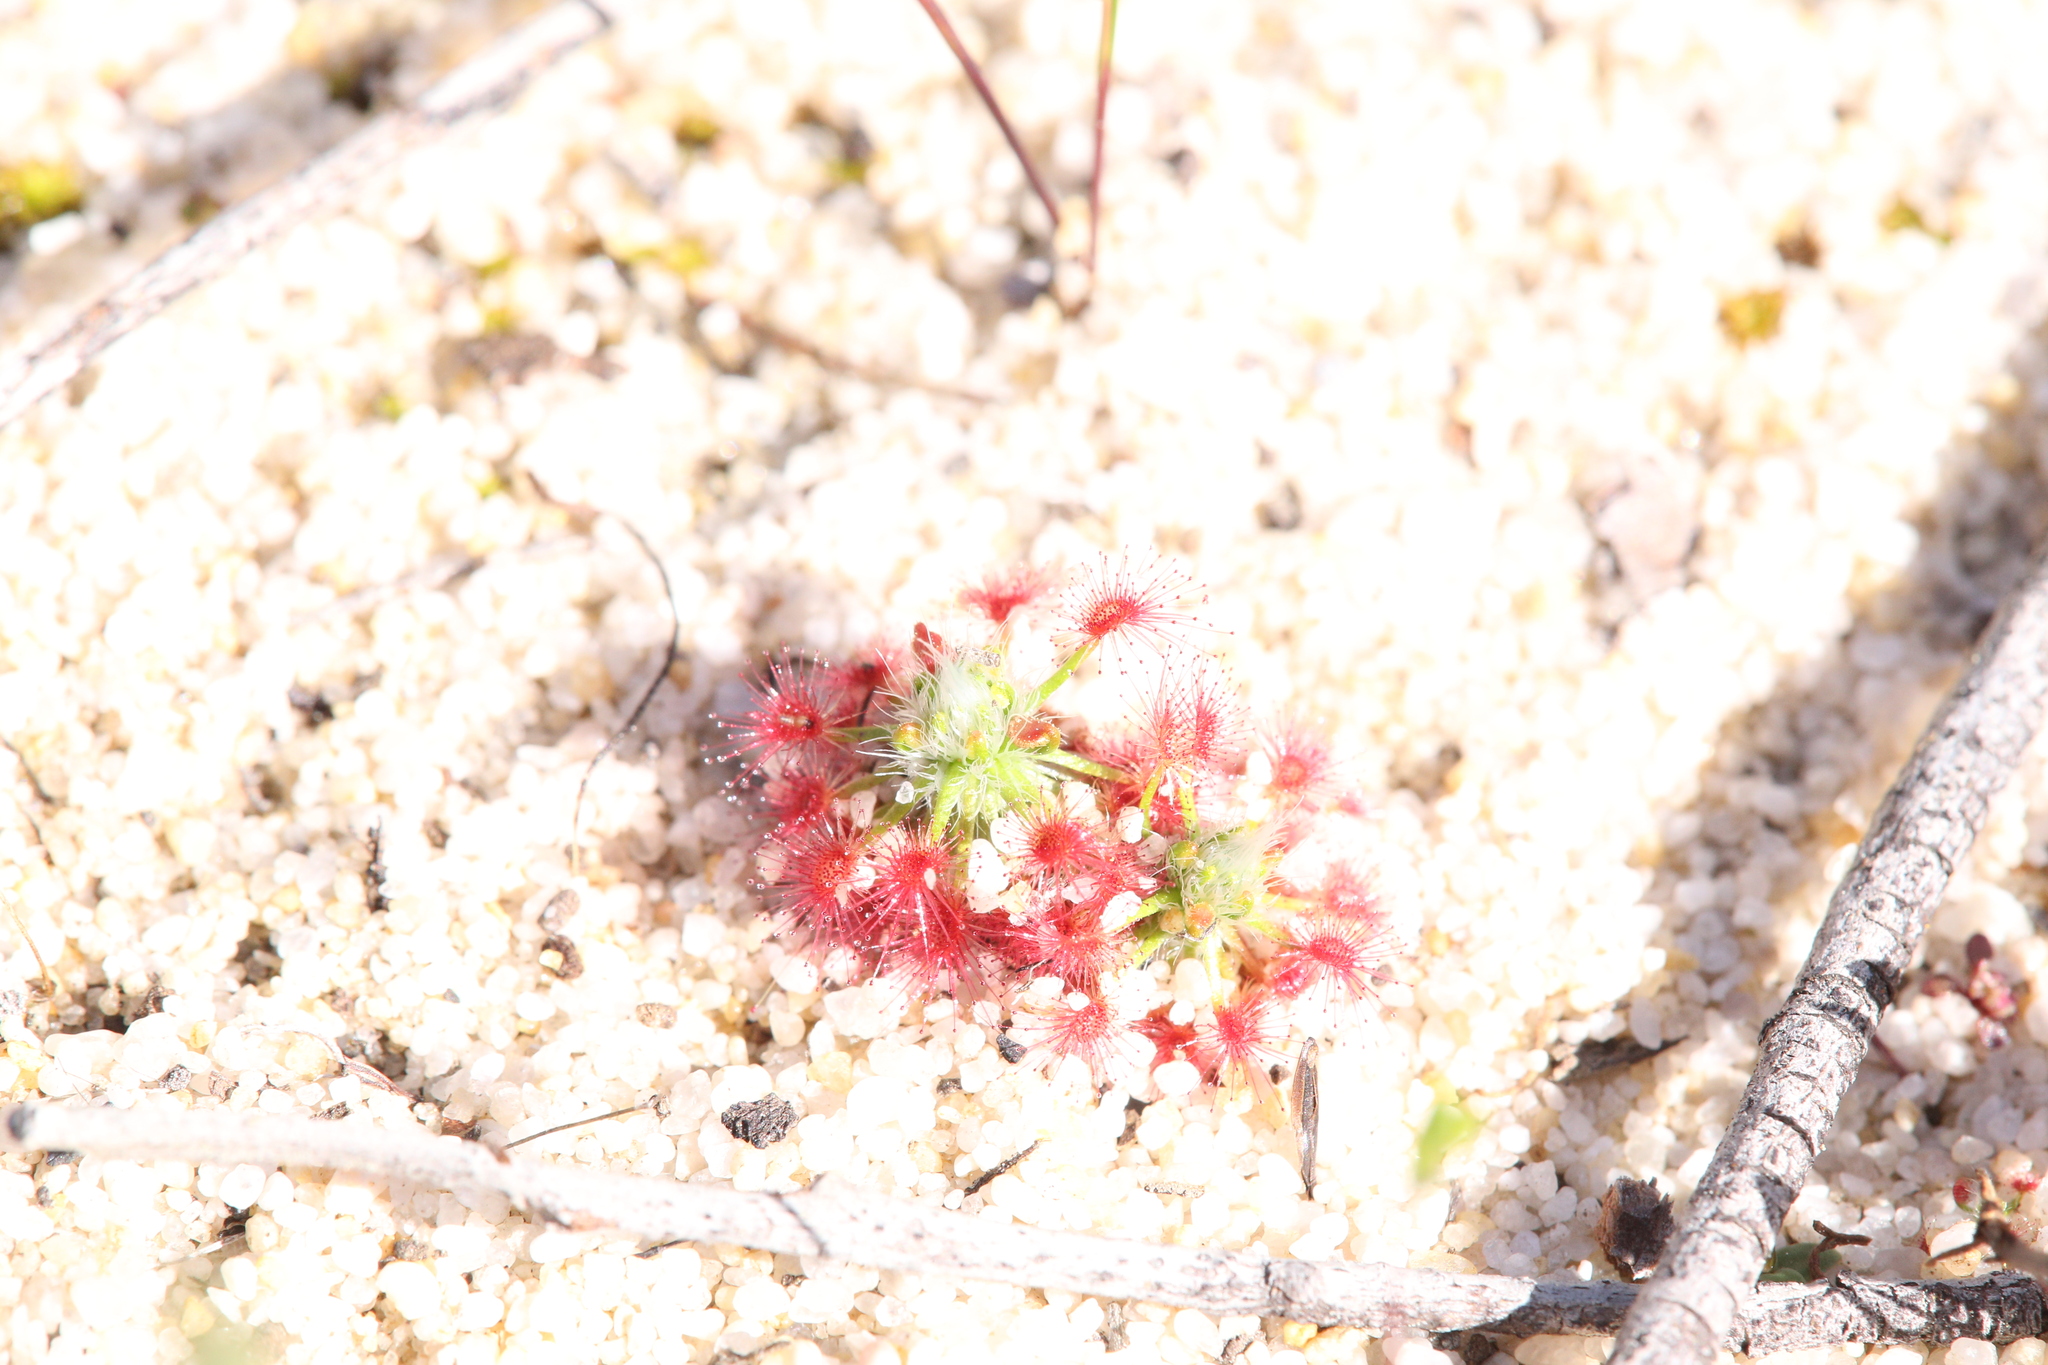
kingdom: Plantae
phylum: Tracheophyta
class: Magnoliopsida
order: Caryophyllales
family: Droseraceae
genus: Drosera
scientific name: Drosera paleacea
